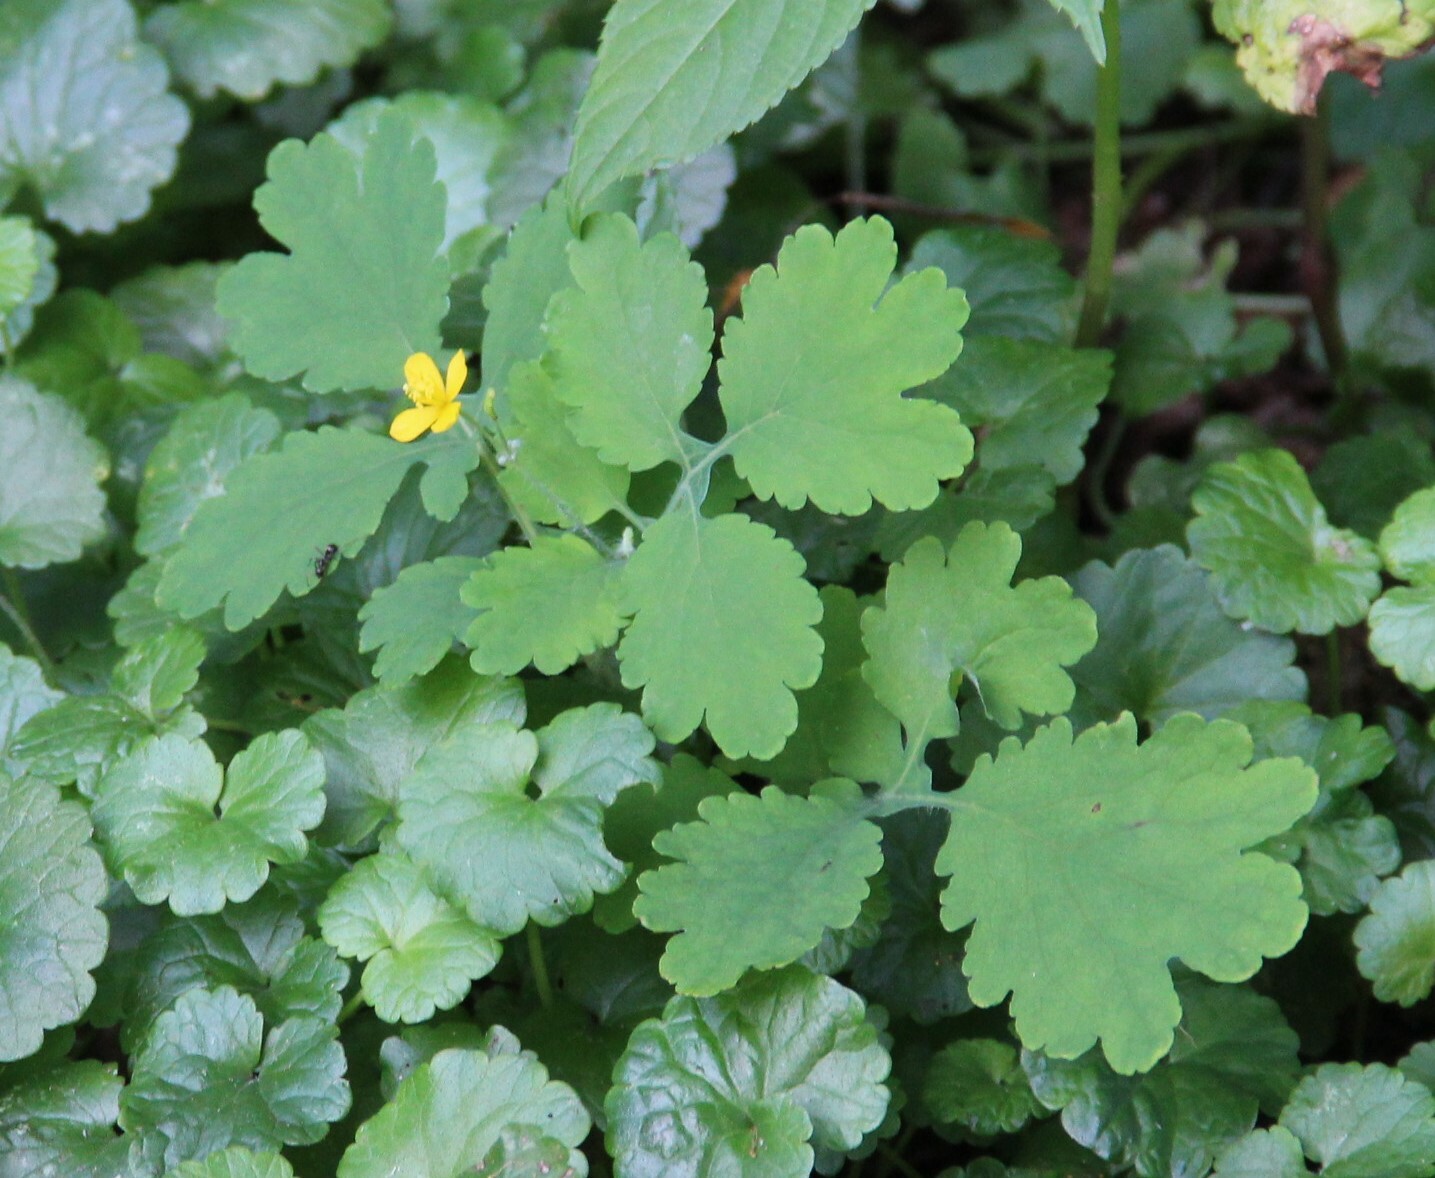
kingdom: Plantae
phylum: Tracheophyta
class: Magnoliopsida
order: Ranunculales
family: Papaveraceae
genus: Chelidonium
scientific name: Chelidonium majus
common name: Greater celandine
